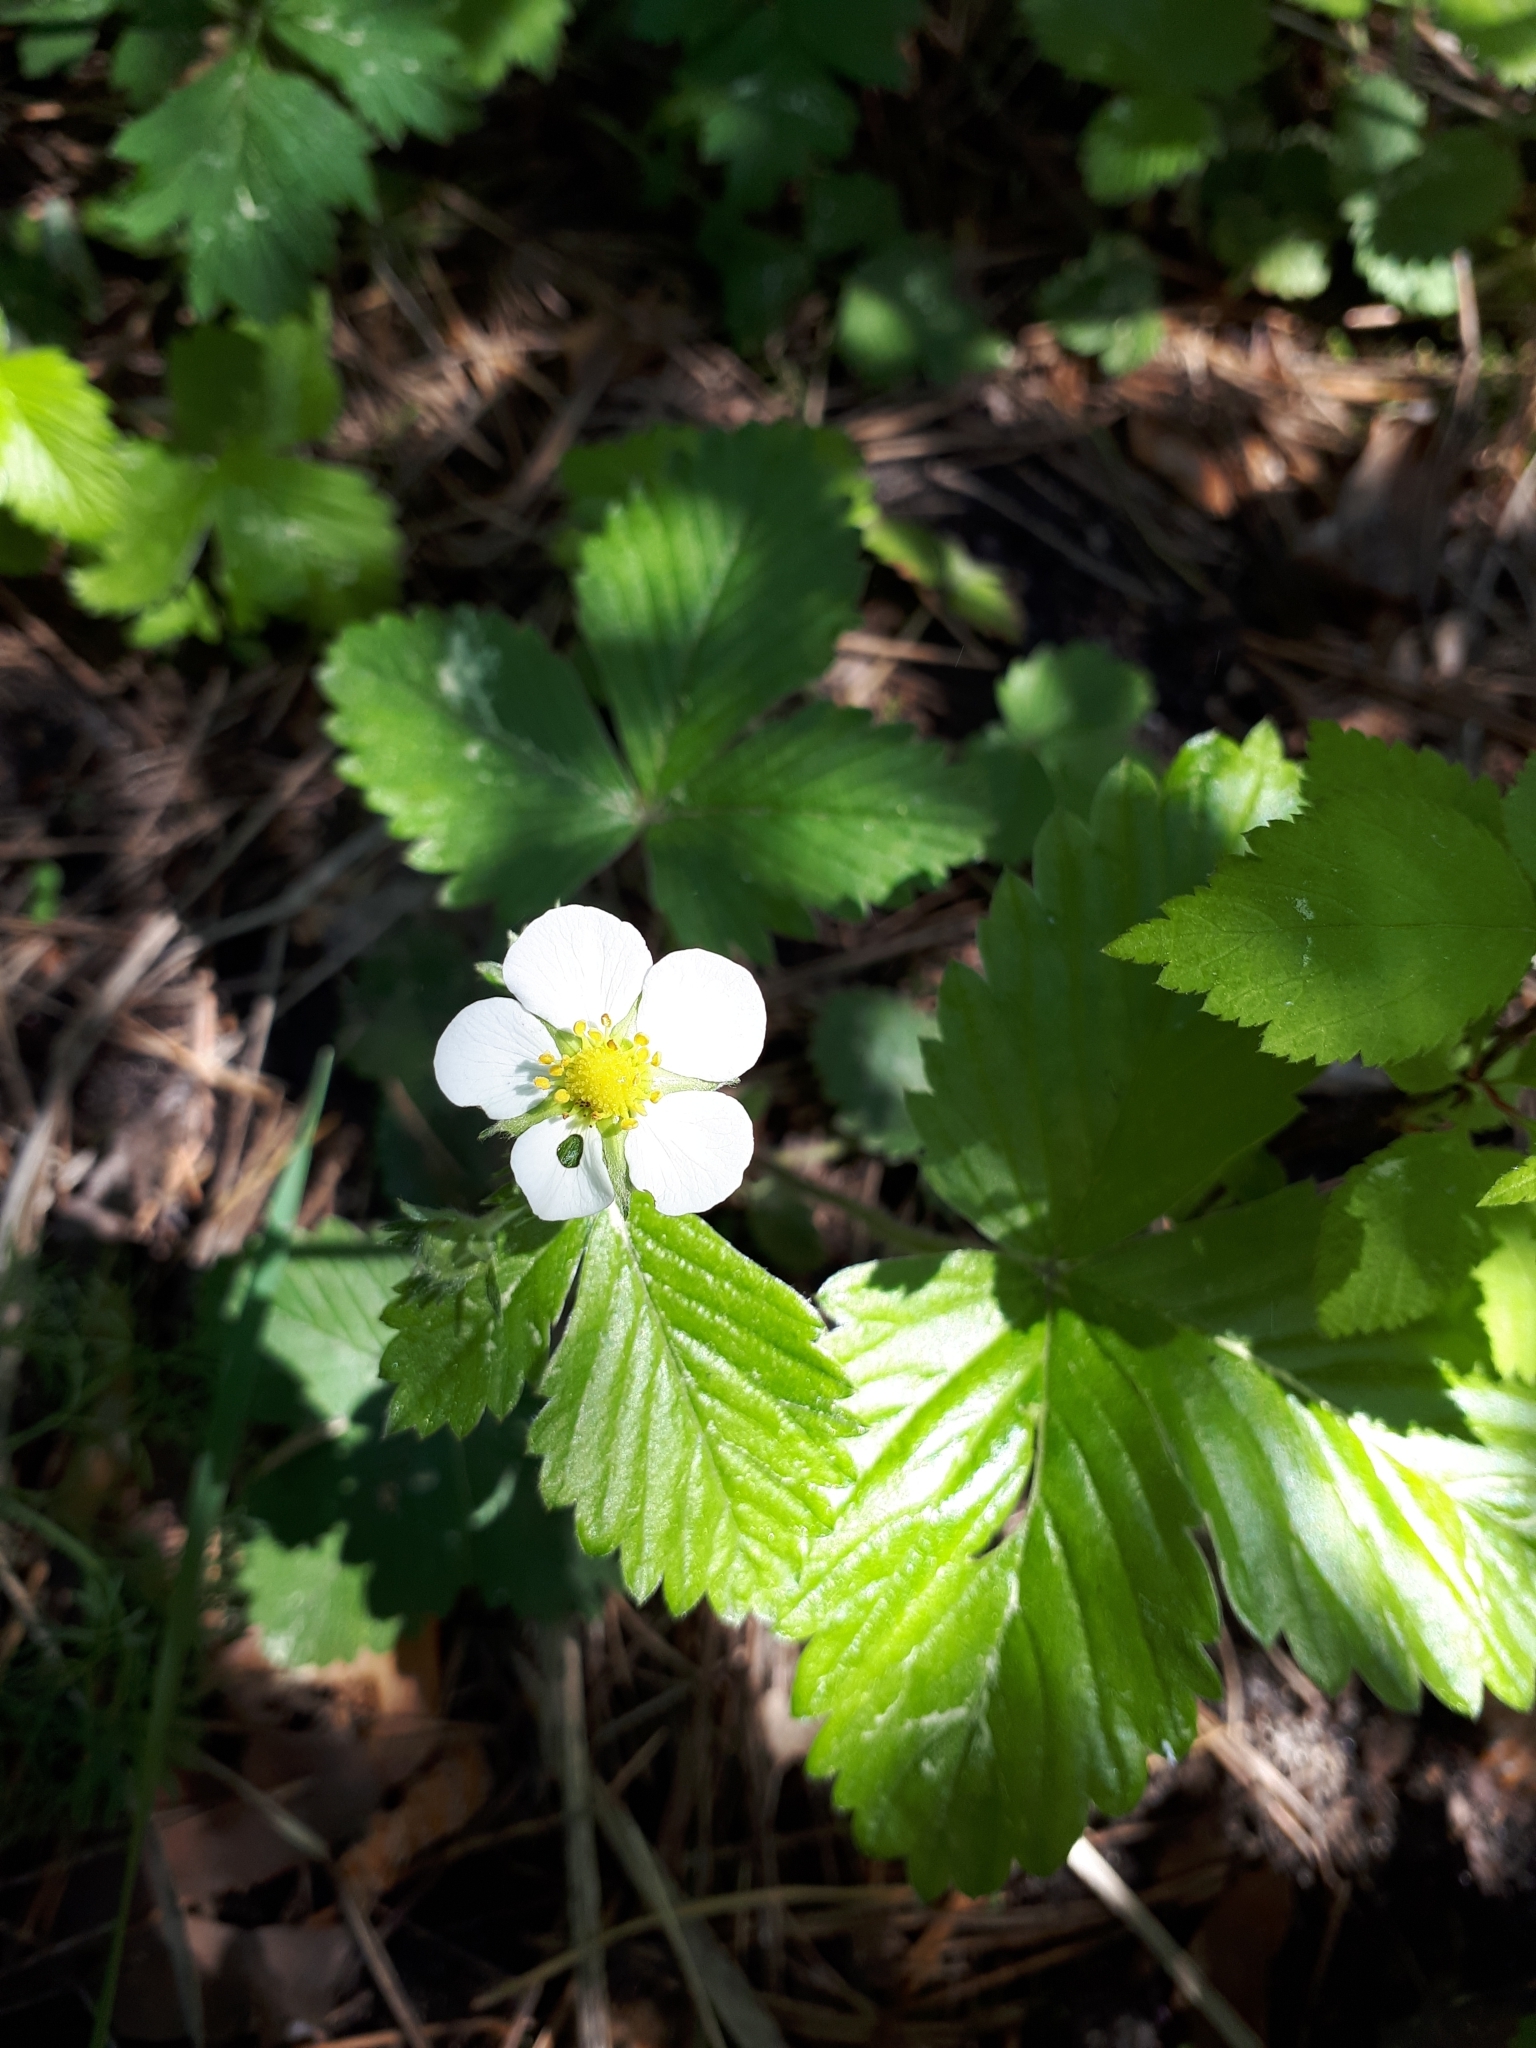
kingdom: Plantae
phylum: Tracheophyta
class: Magnoliopsida
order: Rosales
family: Rosaceae
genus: Fragaria
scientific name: Fragaria vesca
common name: Wild strawberry
